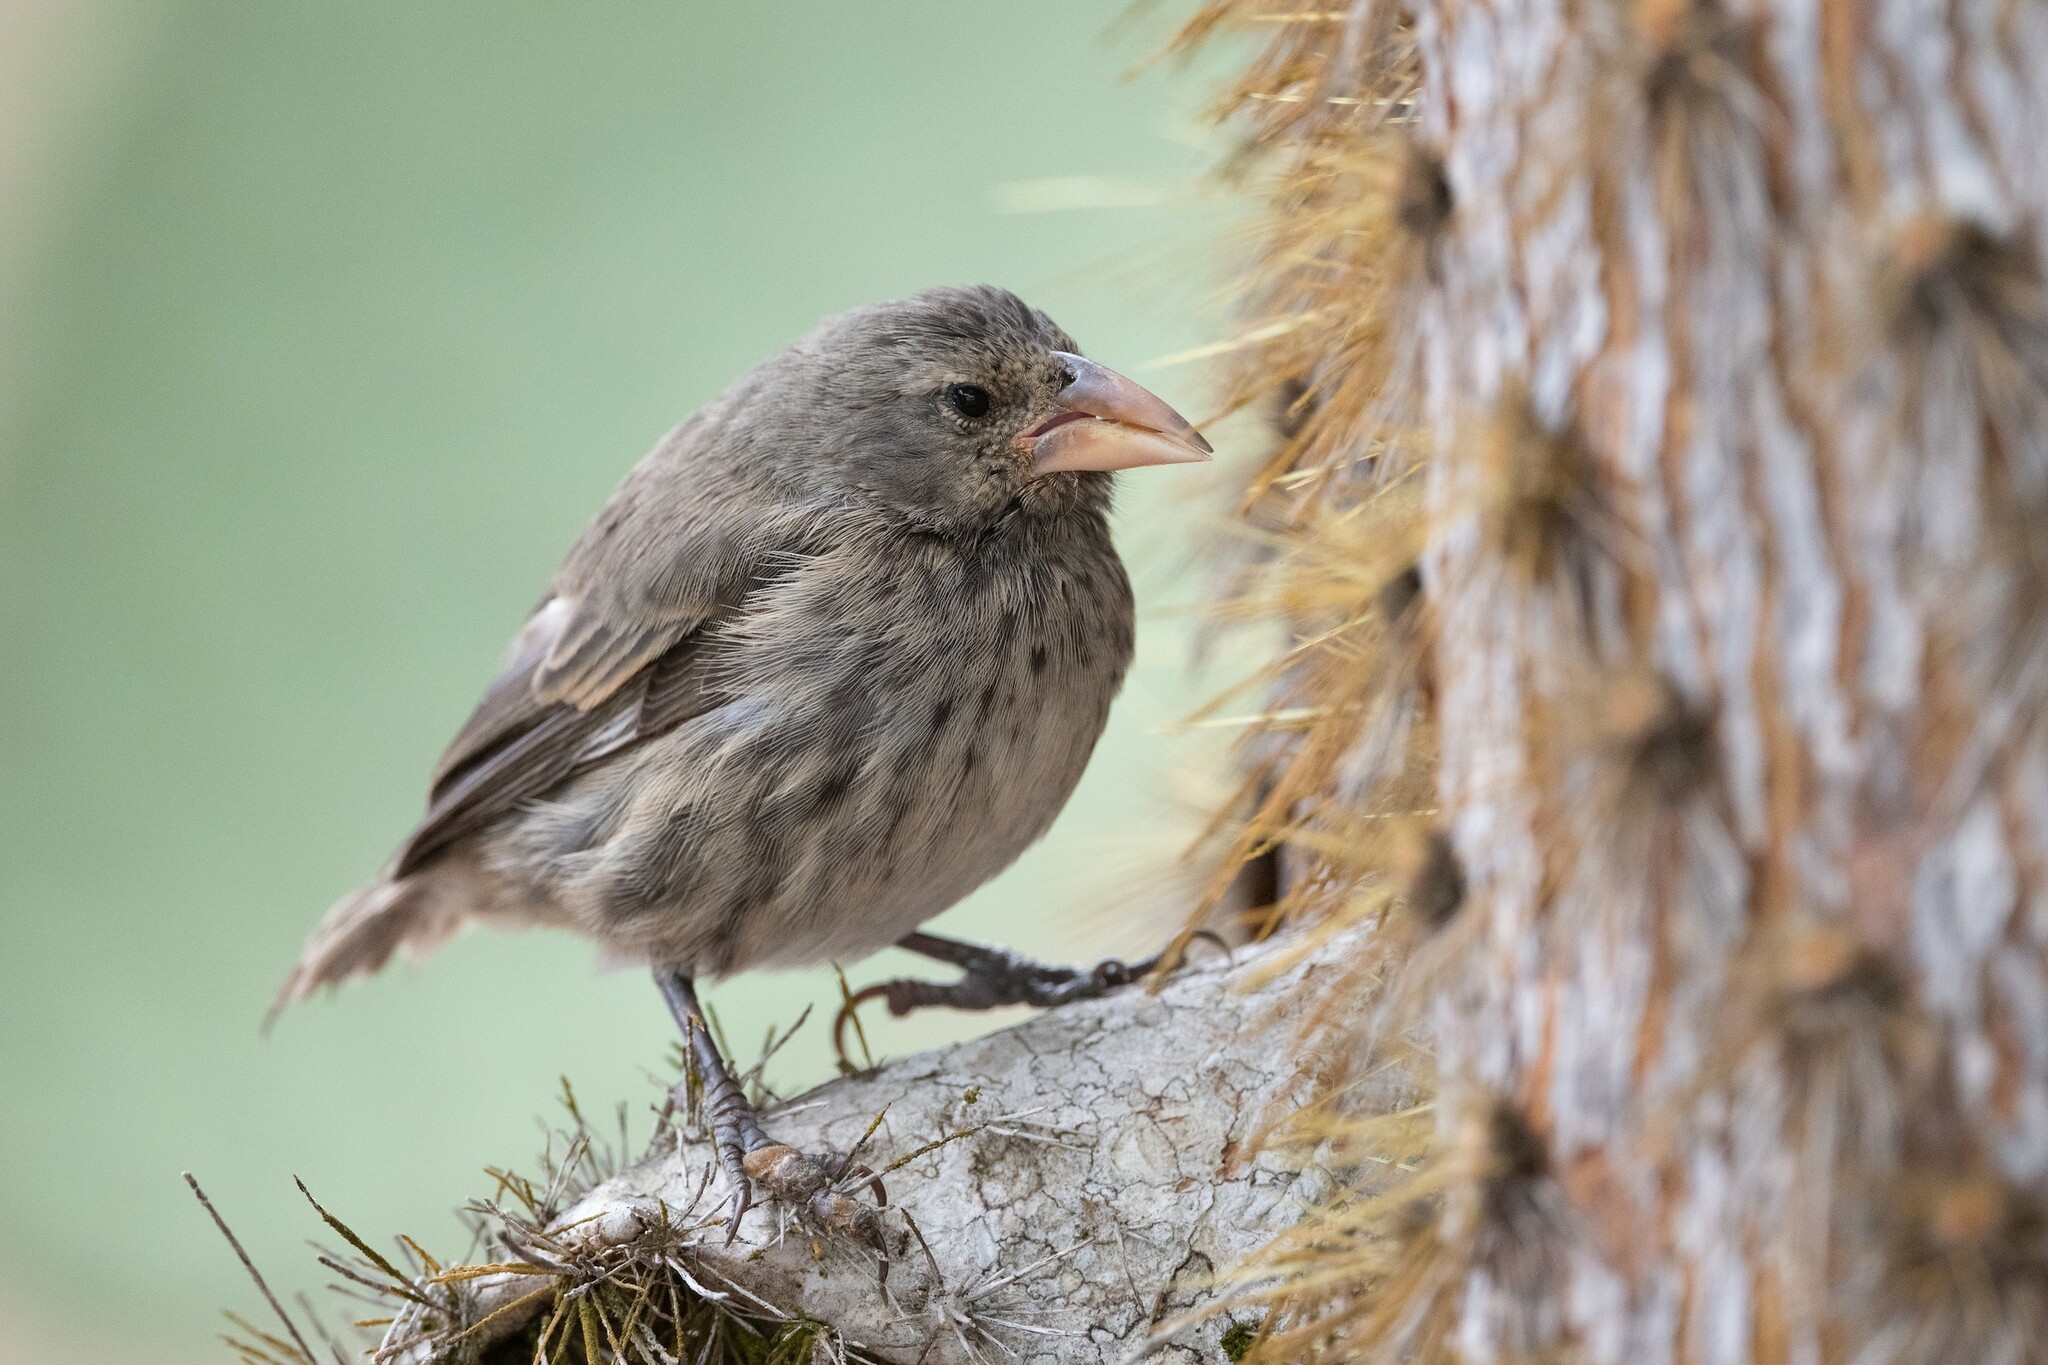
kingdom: Animalia
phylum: Chordata
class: Aves
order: Passeriformes
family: Thraupidae
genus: Geospiza
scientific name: Geospiza scandens
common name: Common cactus-finch
